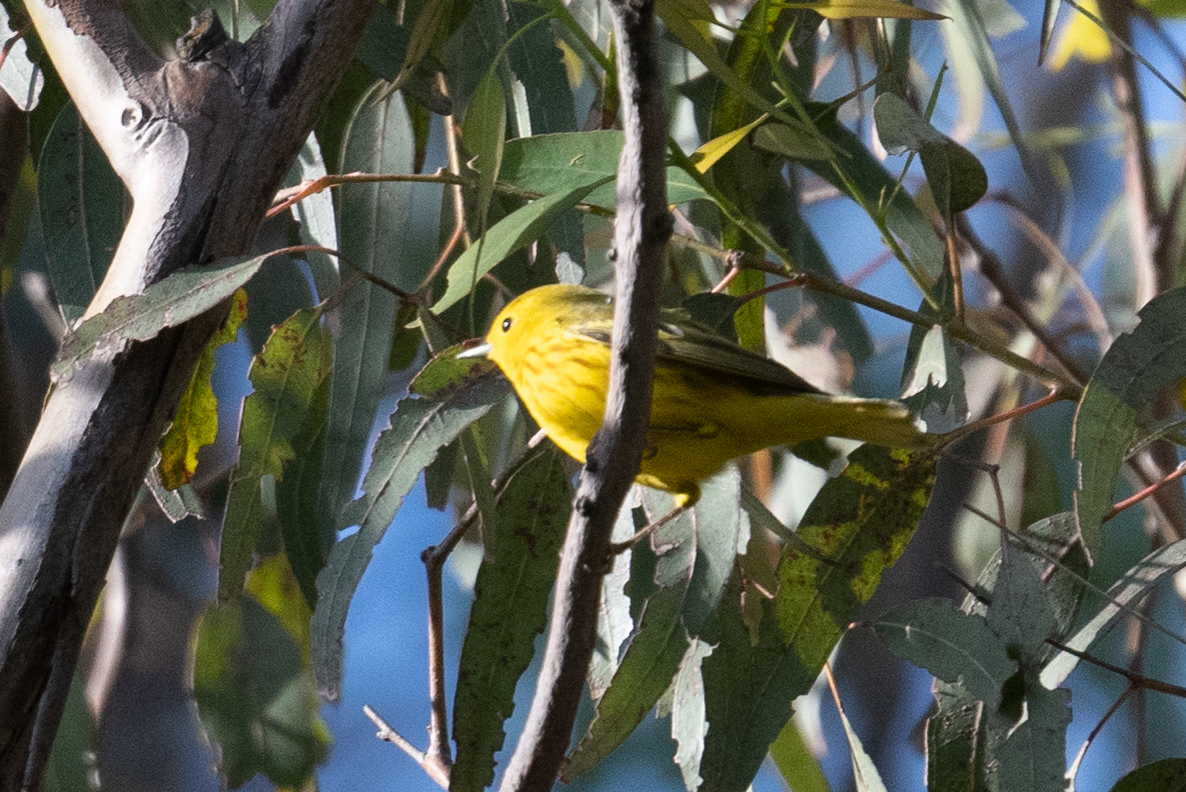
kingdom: Animalia
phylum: Chordata
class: Aves
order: Passeriformes
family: Parulidae
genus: Setophaga
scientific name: Setophaga petechia
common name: Yellow warbler
